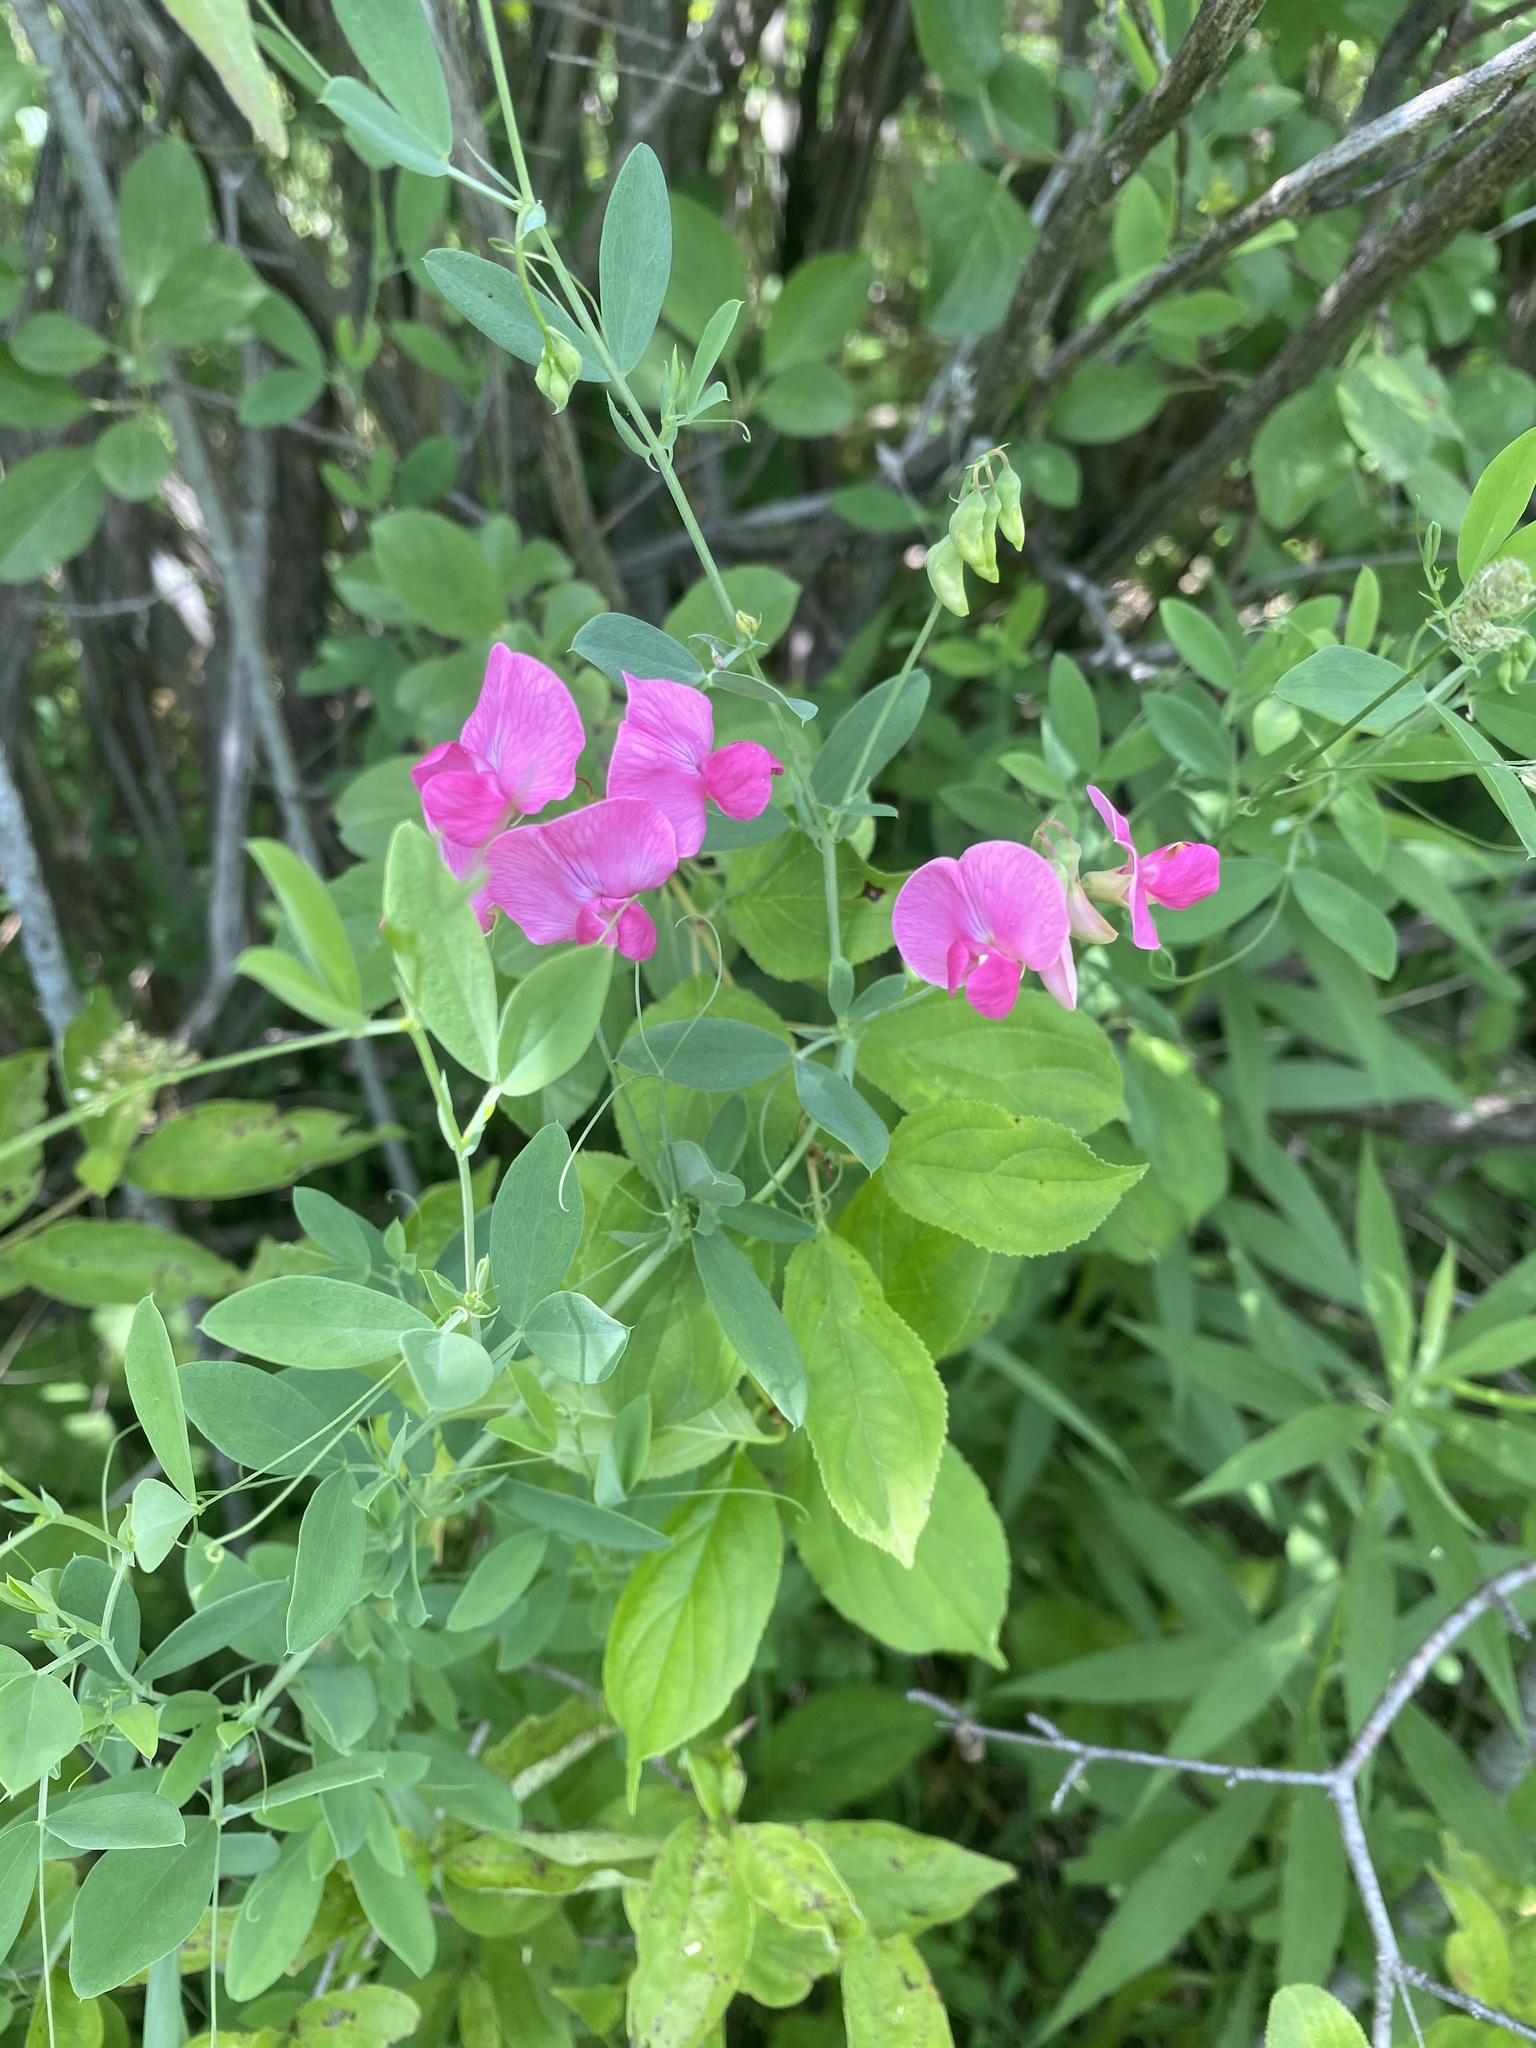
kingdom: Plantae
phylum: Tracheophyta
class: Magnoliopsida
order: Fabales
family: Fabaceae
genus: Lathyrus
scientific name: Lathyrus tuberosus
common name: Tuberous pea
